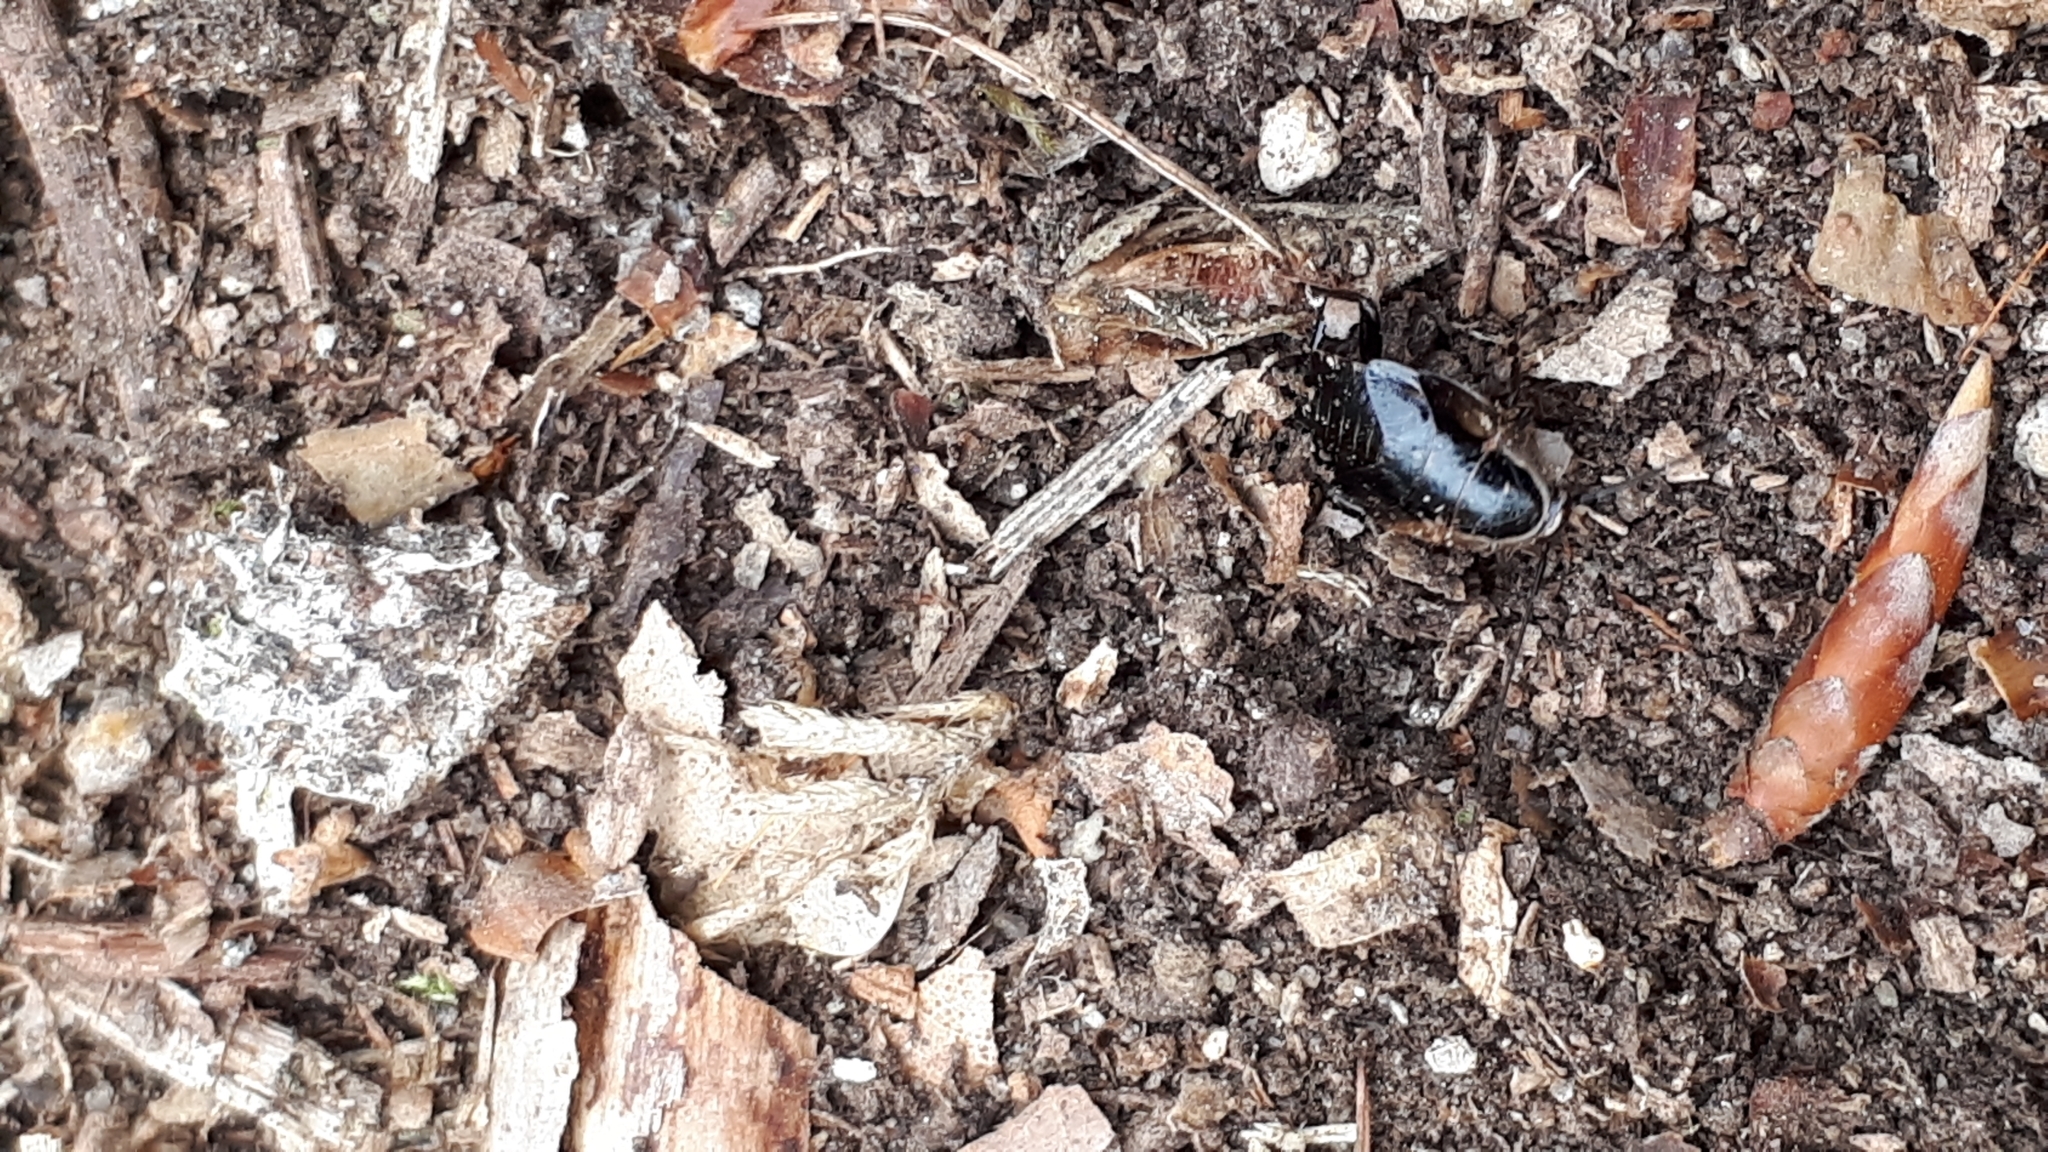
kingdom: Animalia
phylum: Arthropoda
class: Insecta
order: Blattodea
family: Ectobiidae
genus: Ectobius
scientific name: Ectobius sylvestris
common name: Forest cockroach
